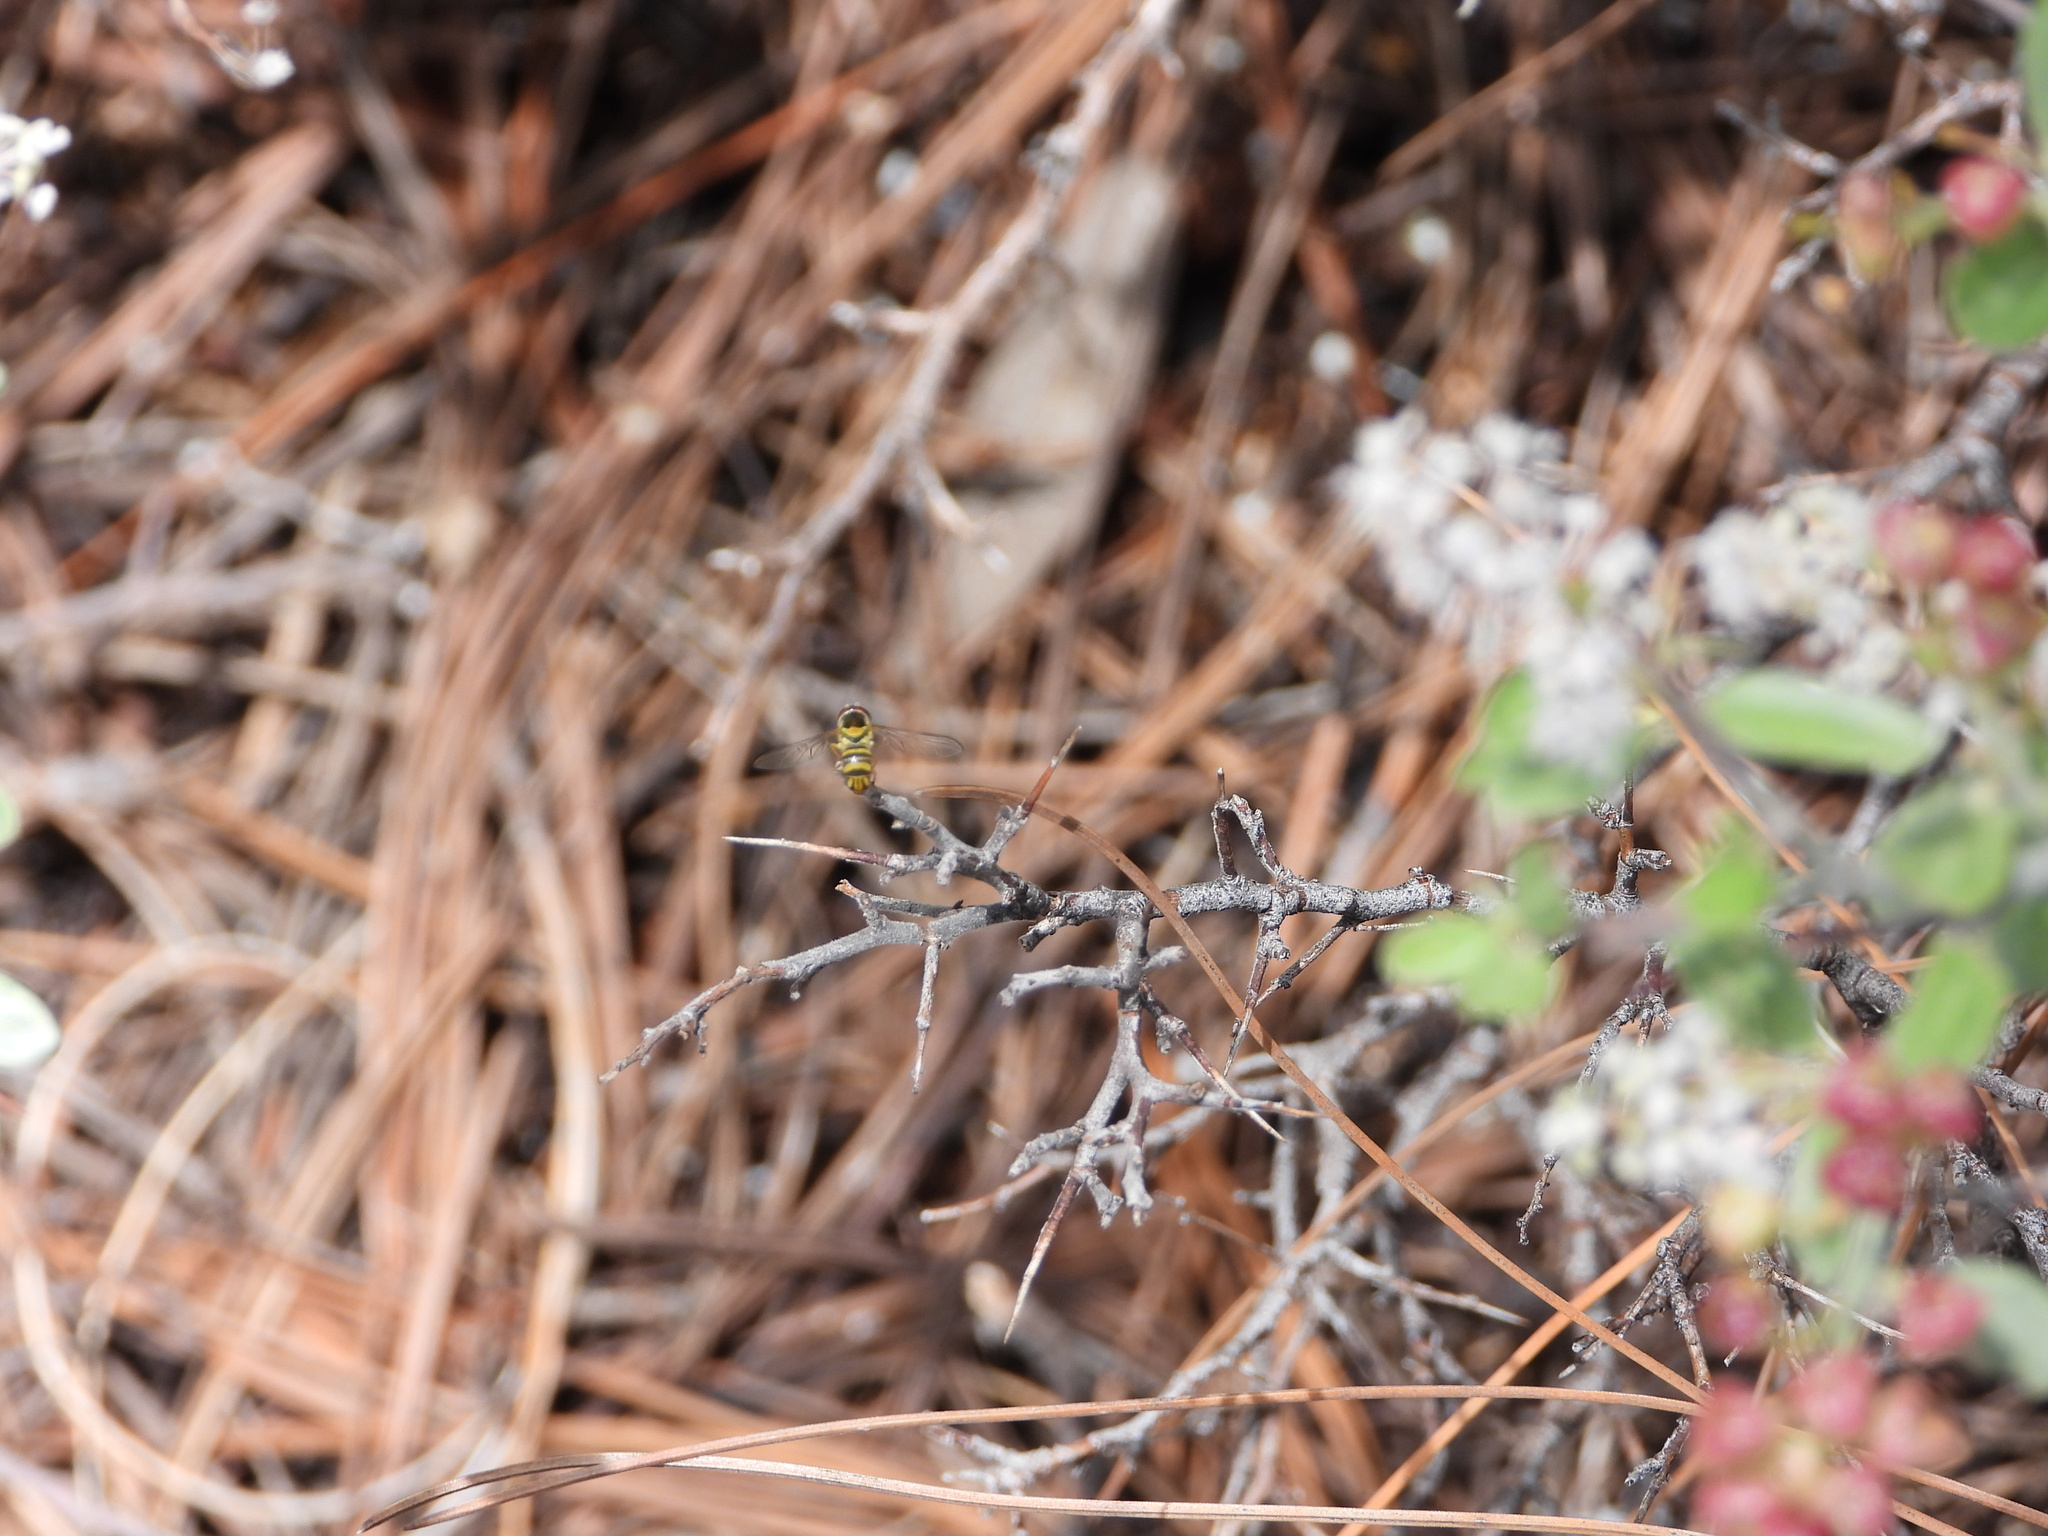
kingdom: Animalia
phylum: Arthropoda
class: Insecta
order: Diptera
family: Syrphidae
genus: Allograpta
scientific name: Allograpta obliqua
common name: Common oblique syrphid
